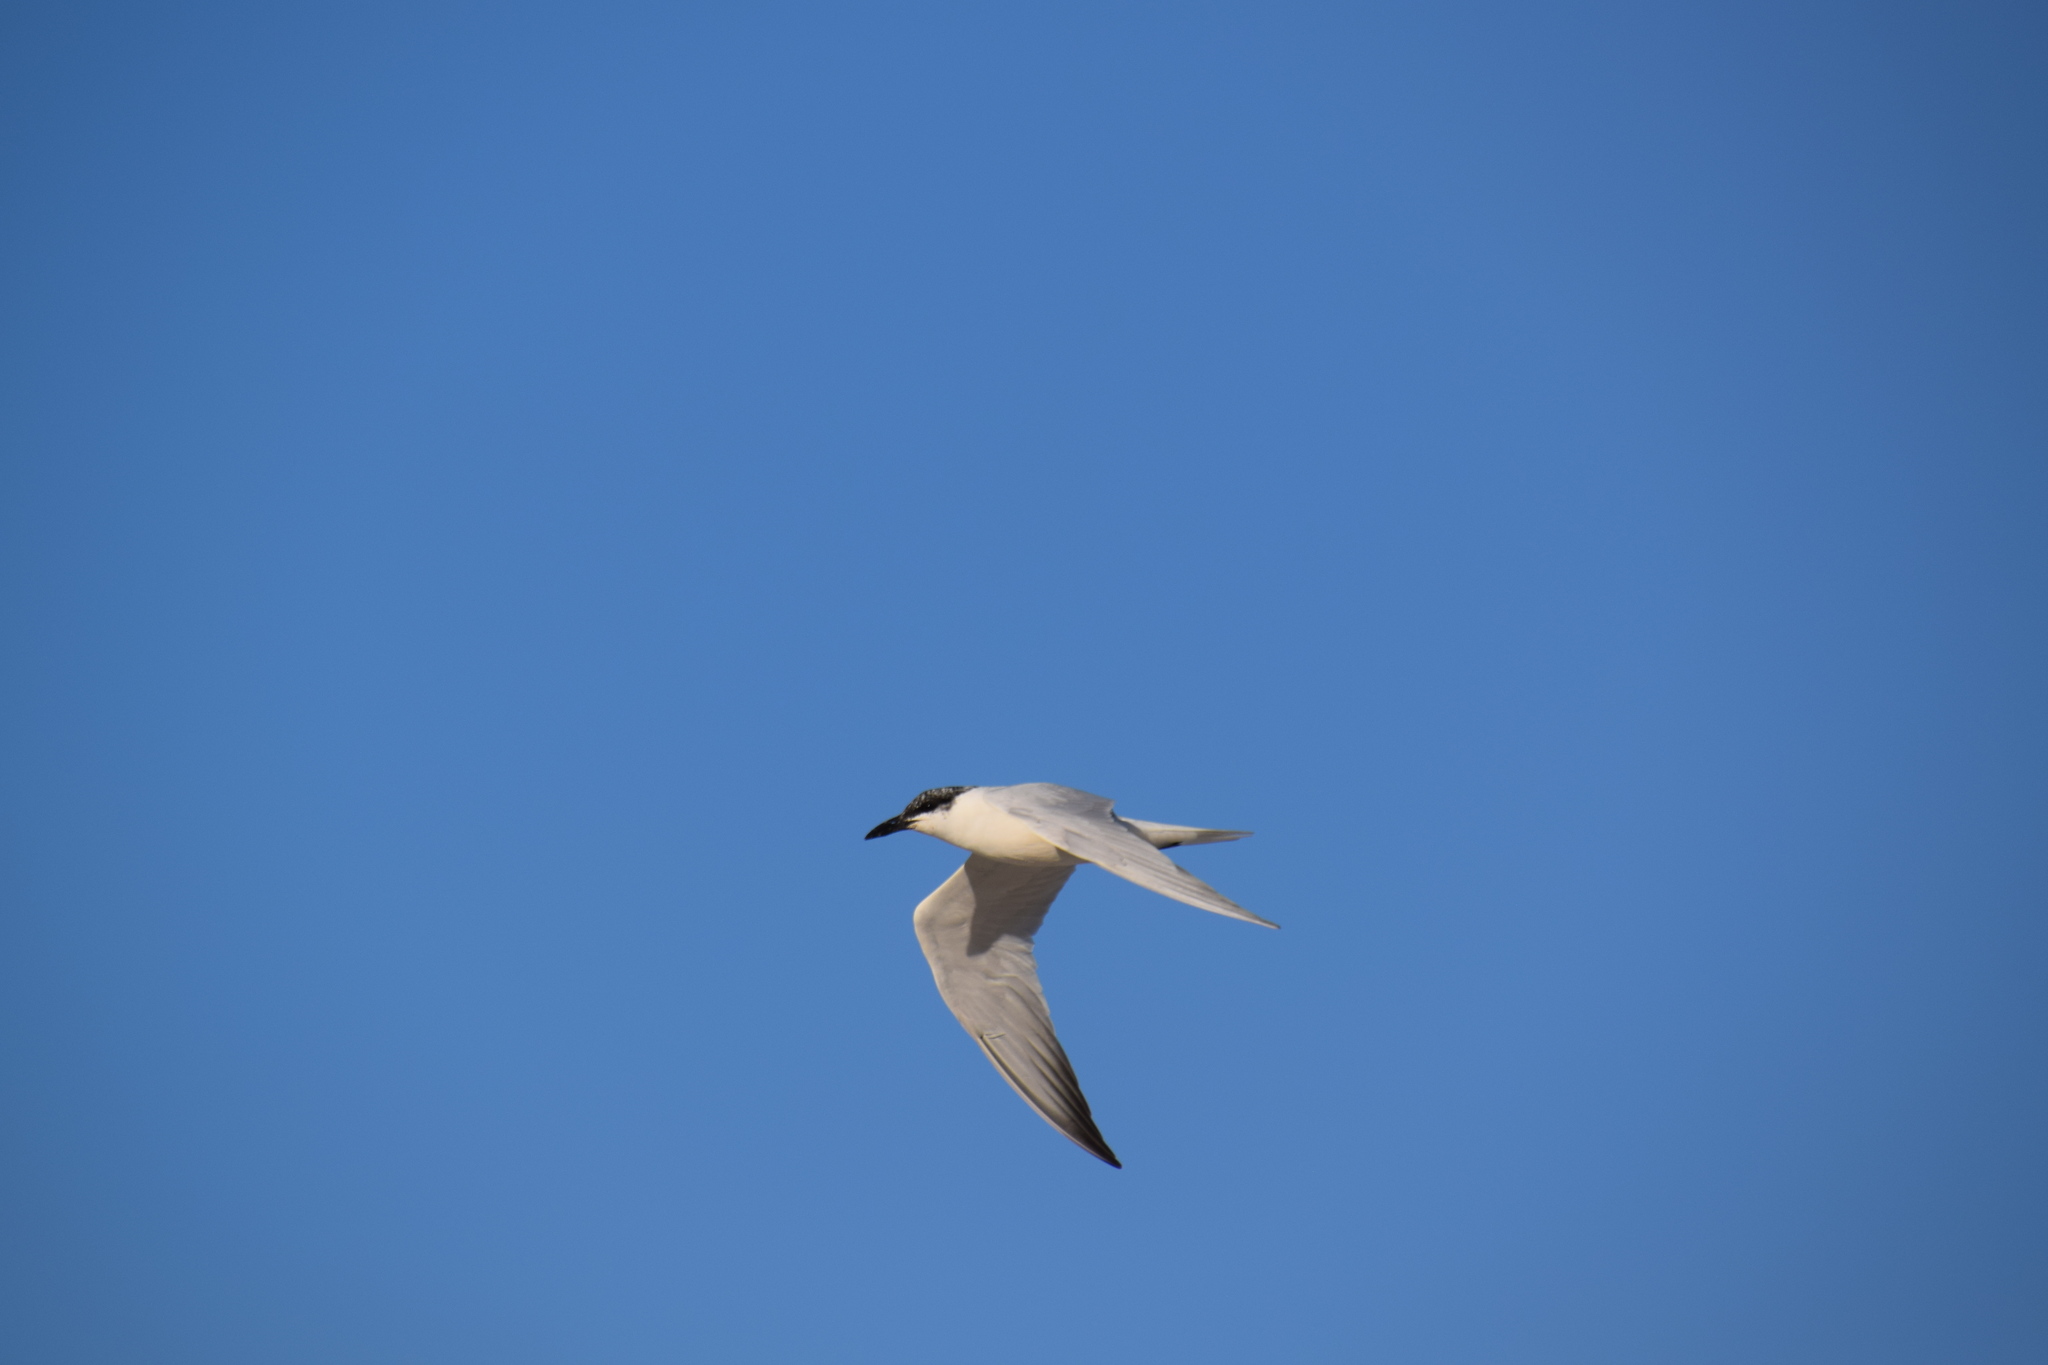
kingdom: Animalia
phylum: Chordata
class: Aves
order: Charadriiformes
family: Laridae
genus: Gelochelidon
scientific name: Gelochelidon macrotarsa
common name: Australian tern
